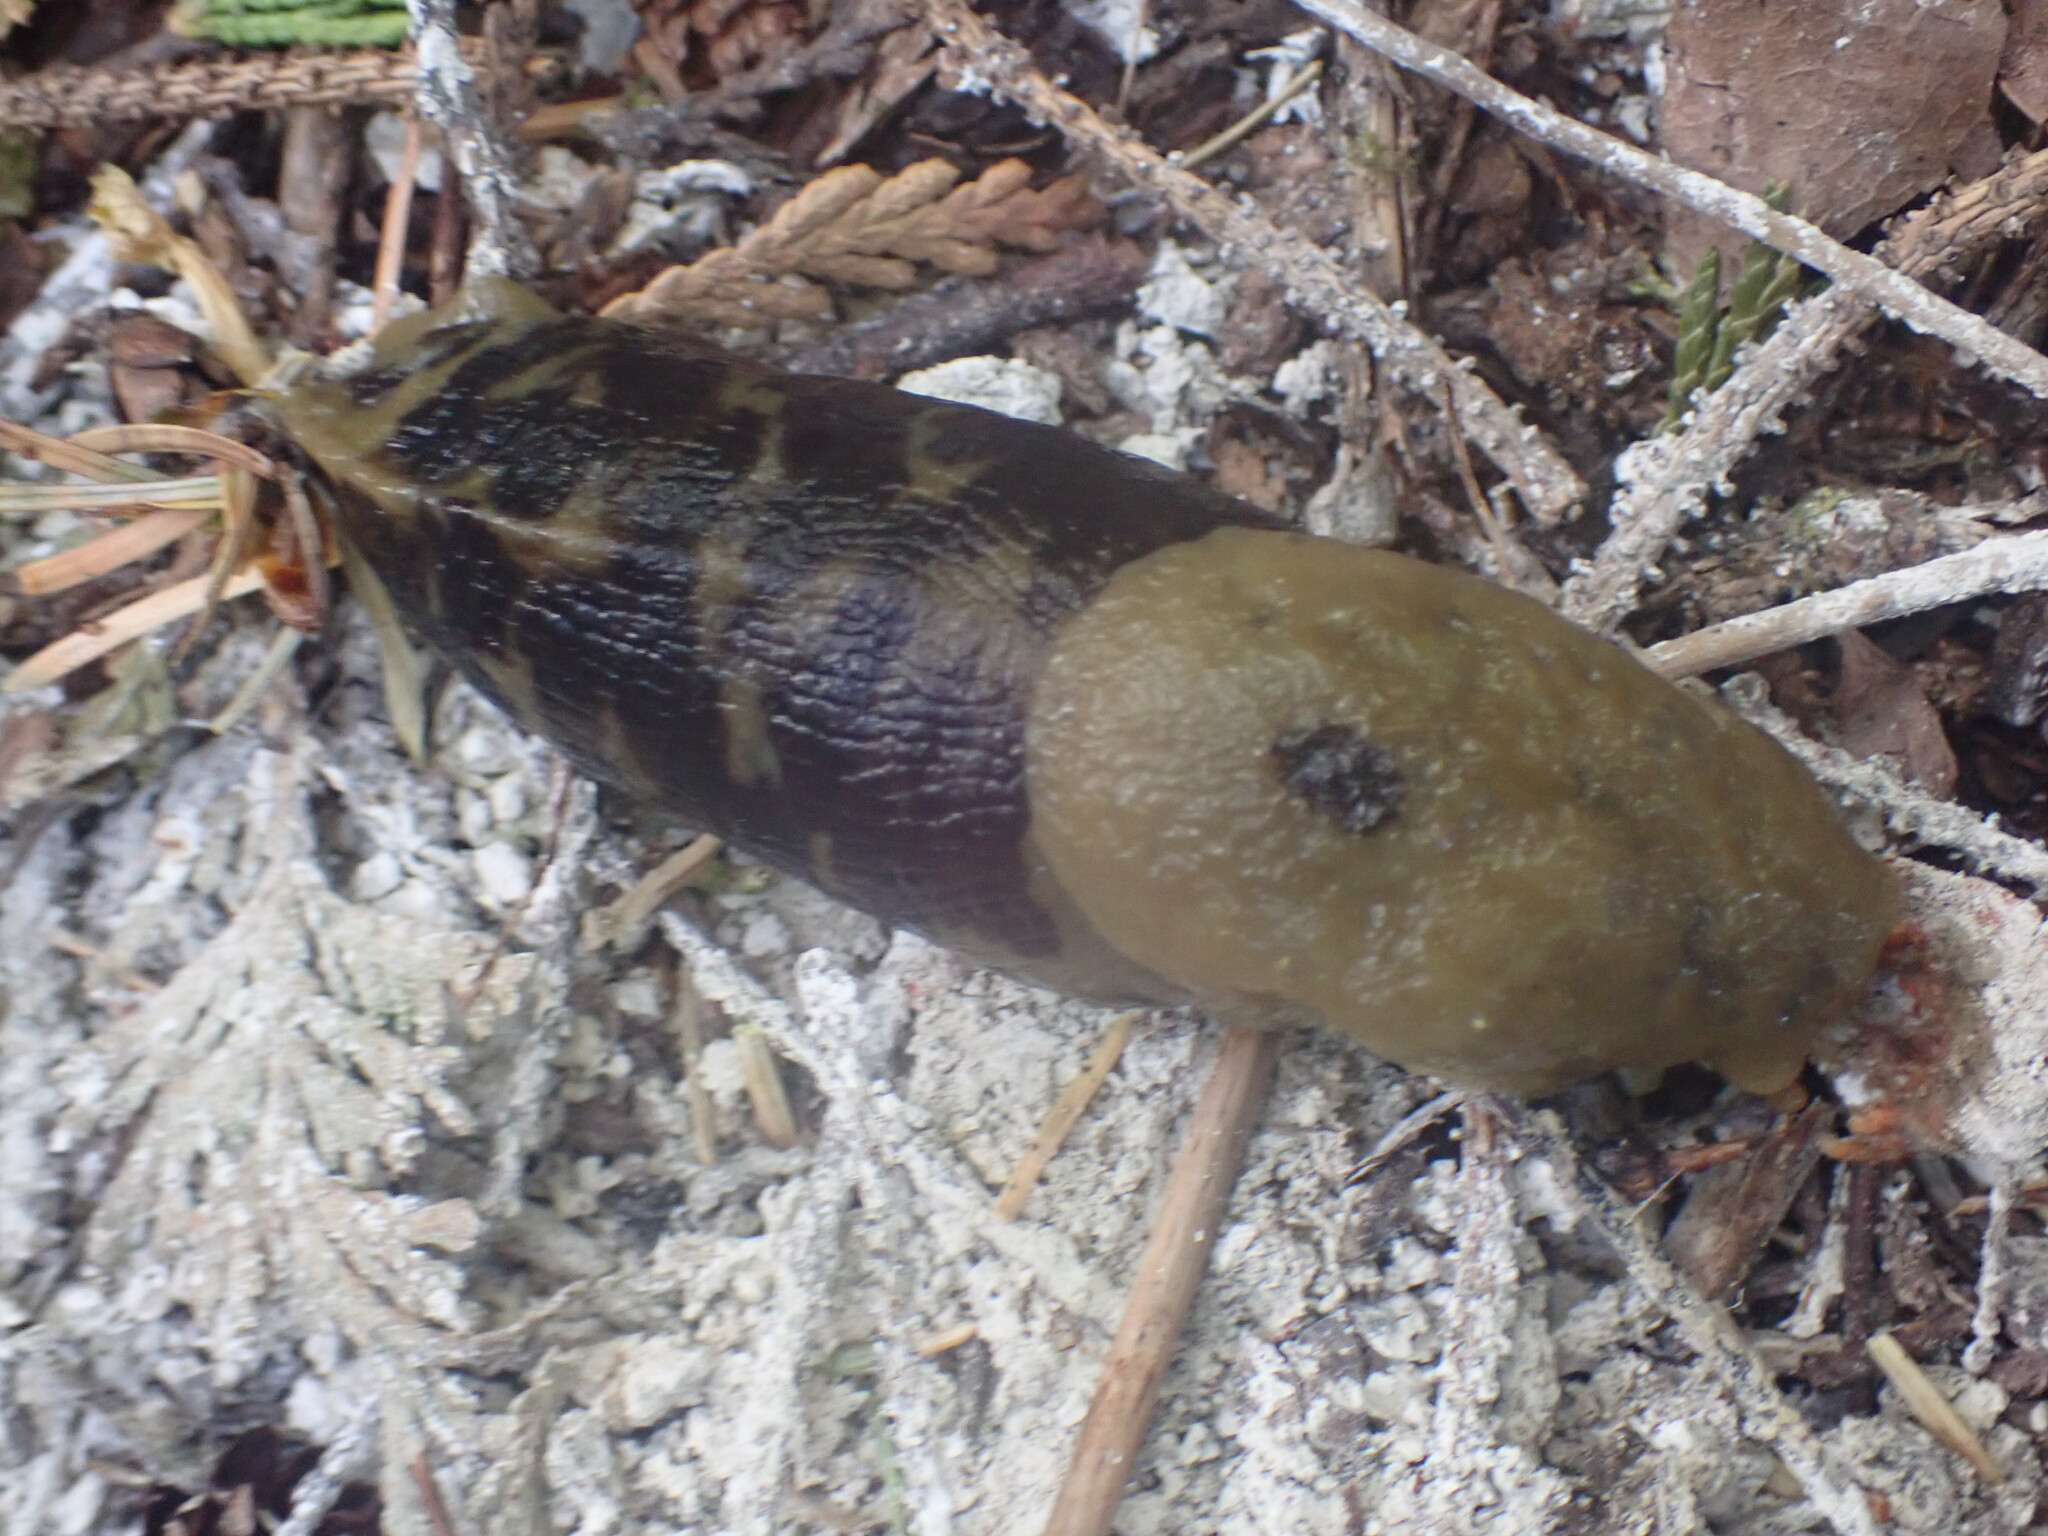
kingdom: Animalia
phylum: Mollusca
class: Gastropoda
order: Stylommatophora
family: Ariolimacidae
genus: Ariolimax
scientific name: Ariolimax columbianus
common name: Pacific banana slug
